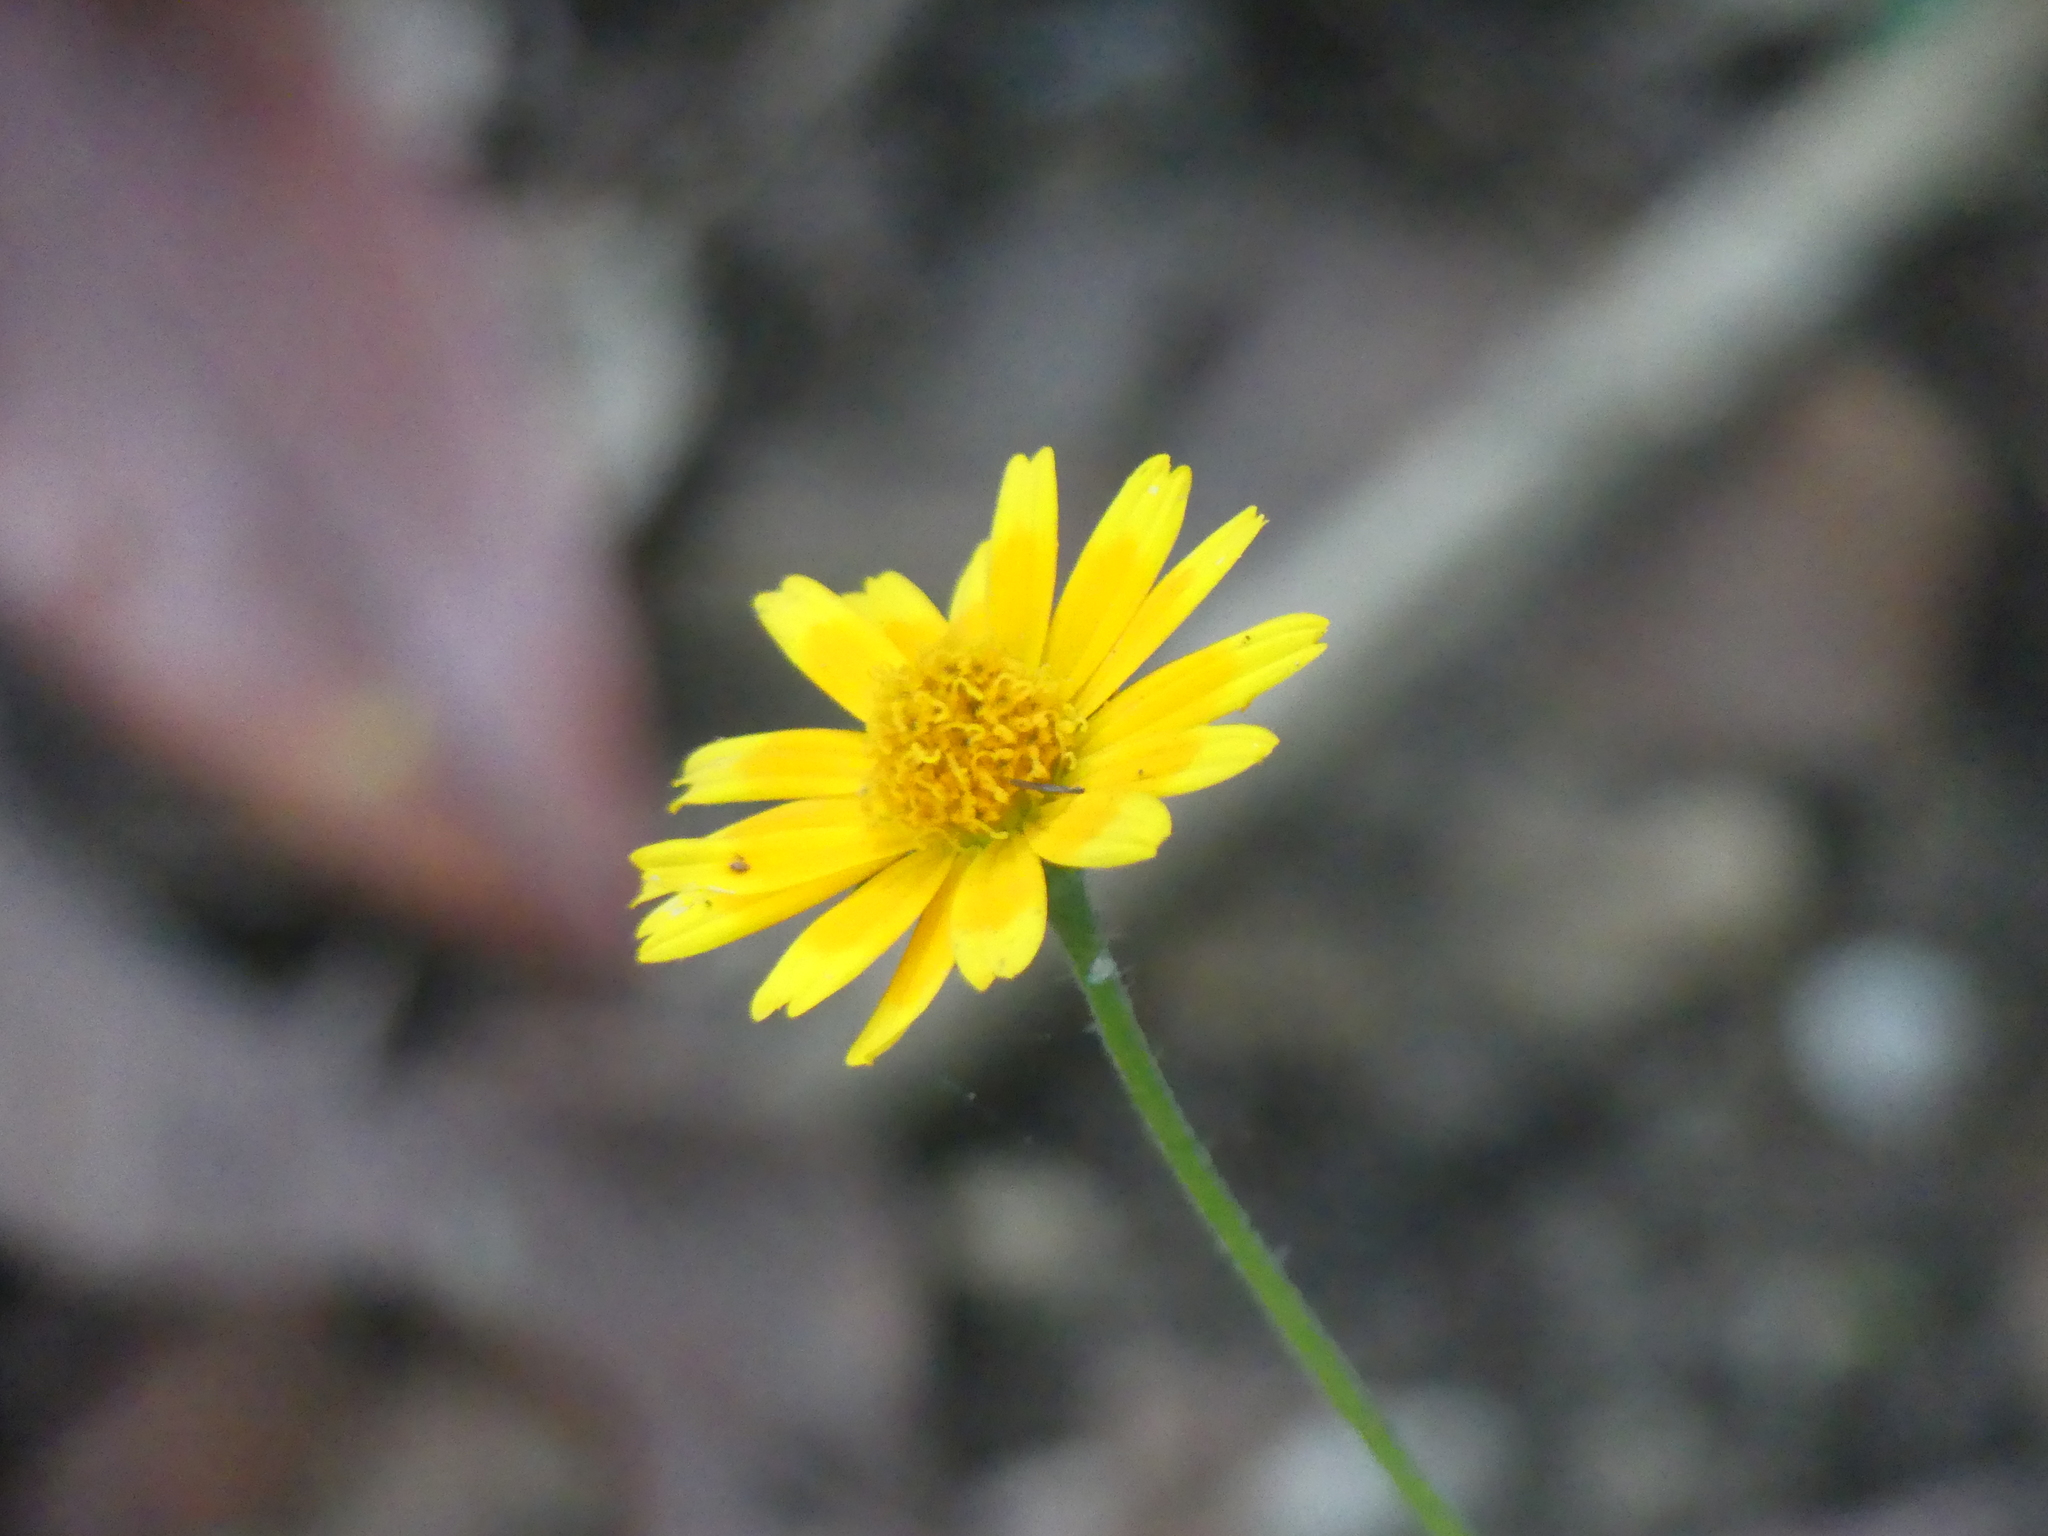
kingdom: Plantae
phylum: Tracheophyta
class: Magnoliopsida
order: Asterales
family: Asteraceae
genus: Sphagneticola
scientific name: Sphagneticola trilobata
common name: Bay biscayne creeping-oxeye
